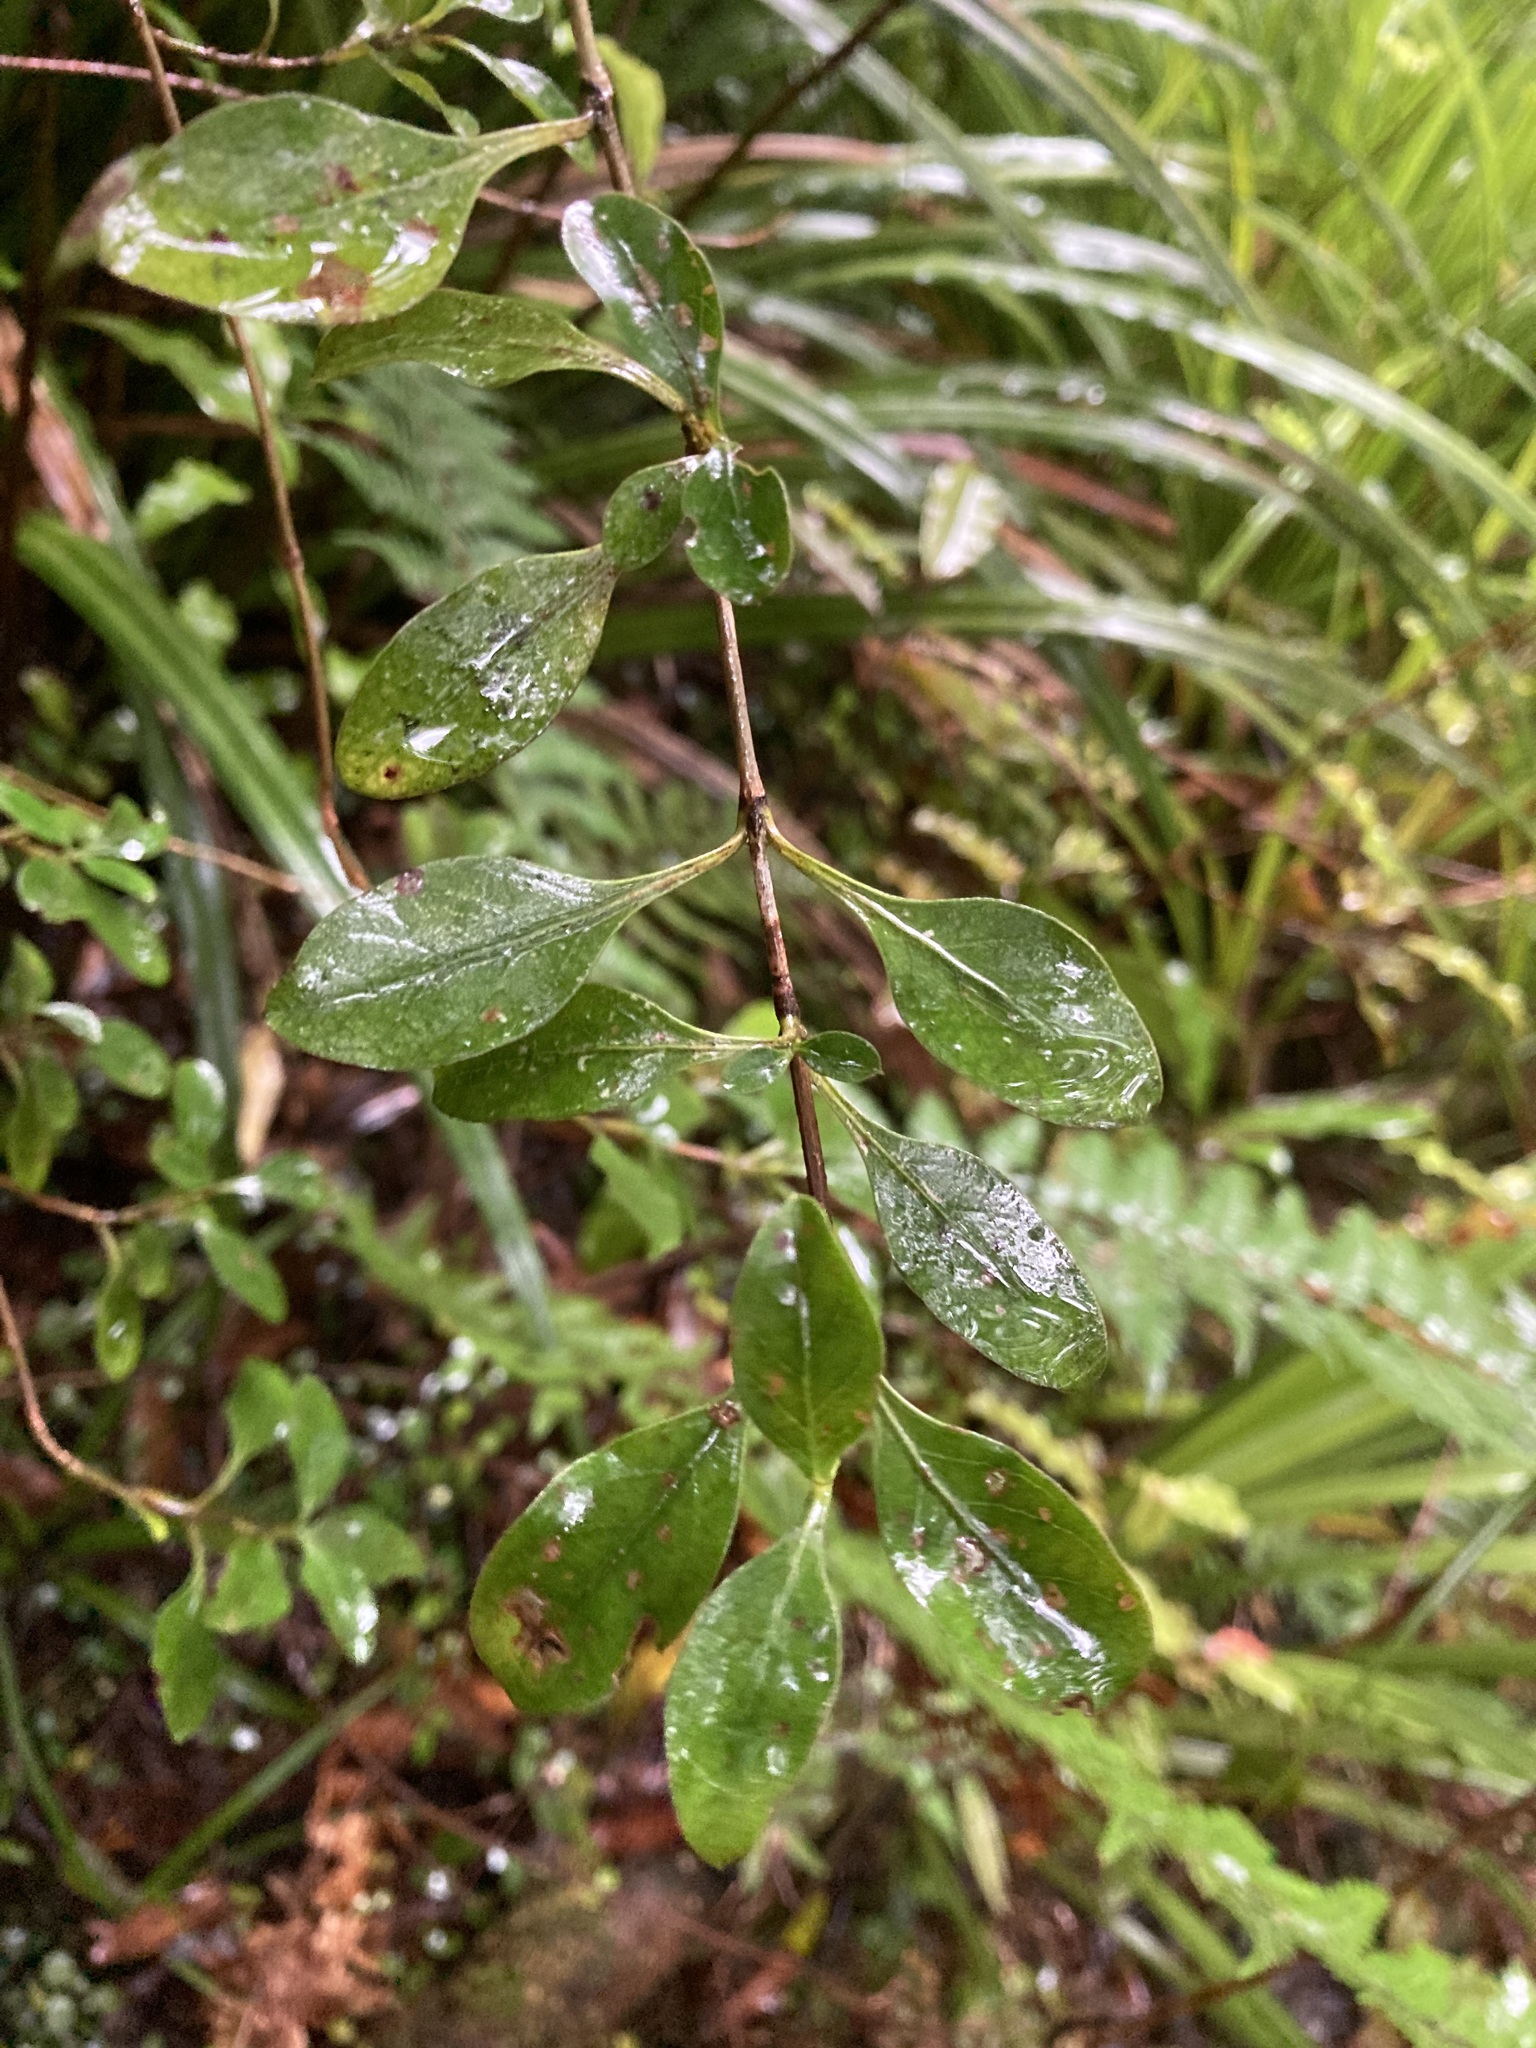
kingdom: Plantae
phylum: Tracheophyta
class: Magnoliopsida
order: Gentianales
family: Rubiaceae
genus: Coprosma
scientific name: Coprosma foetidissima
